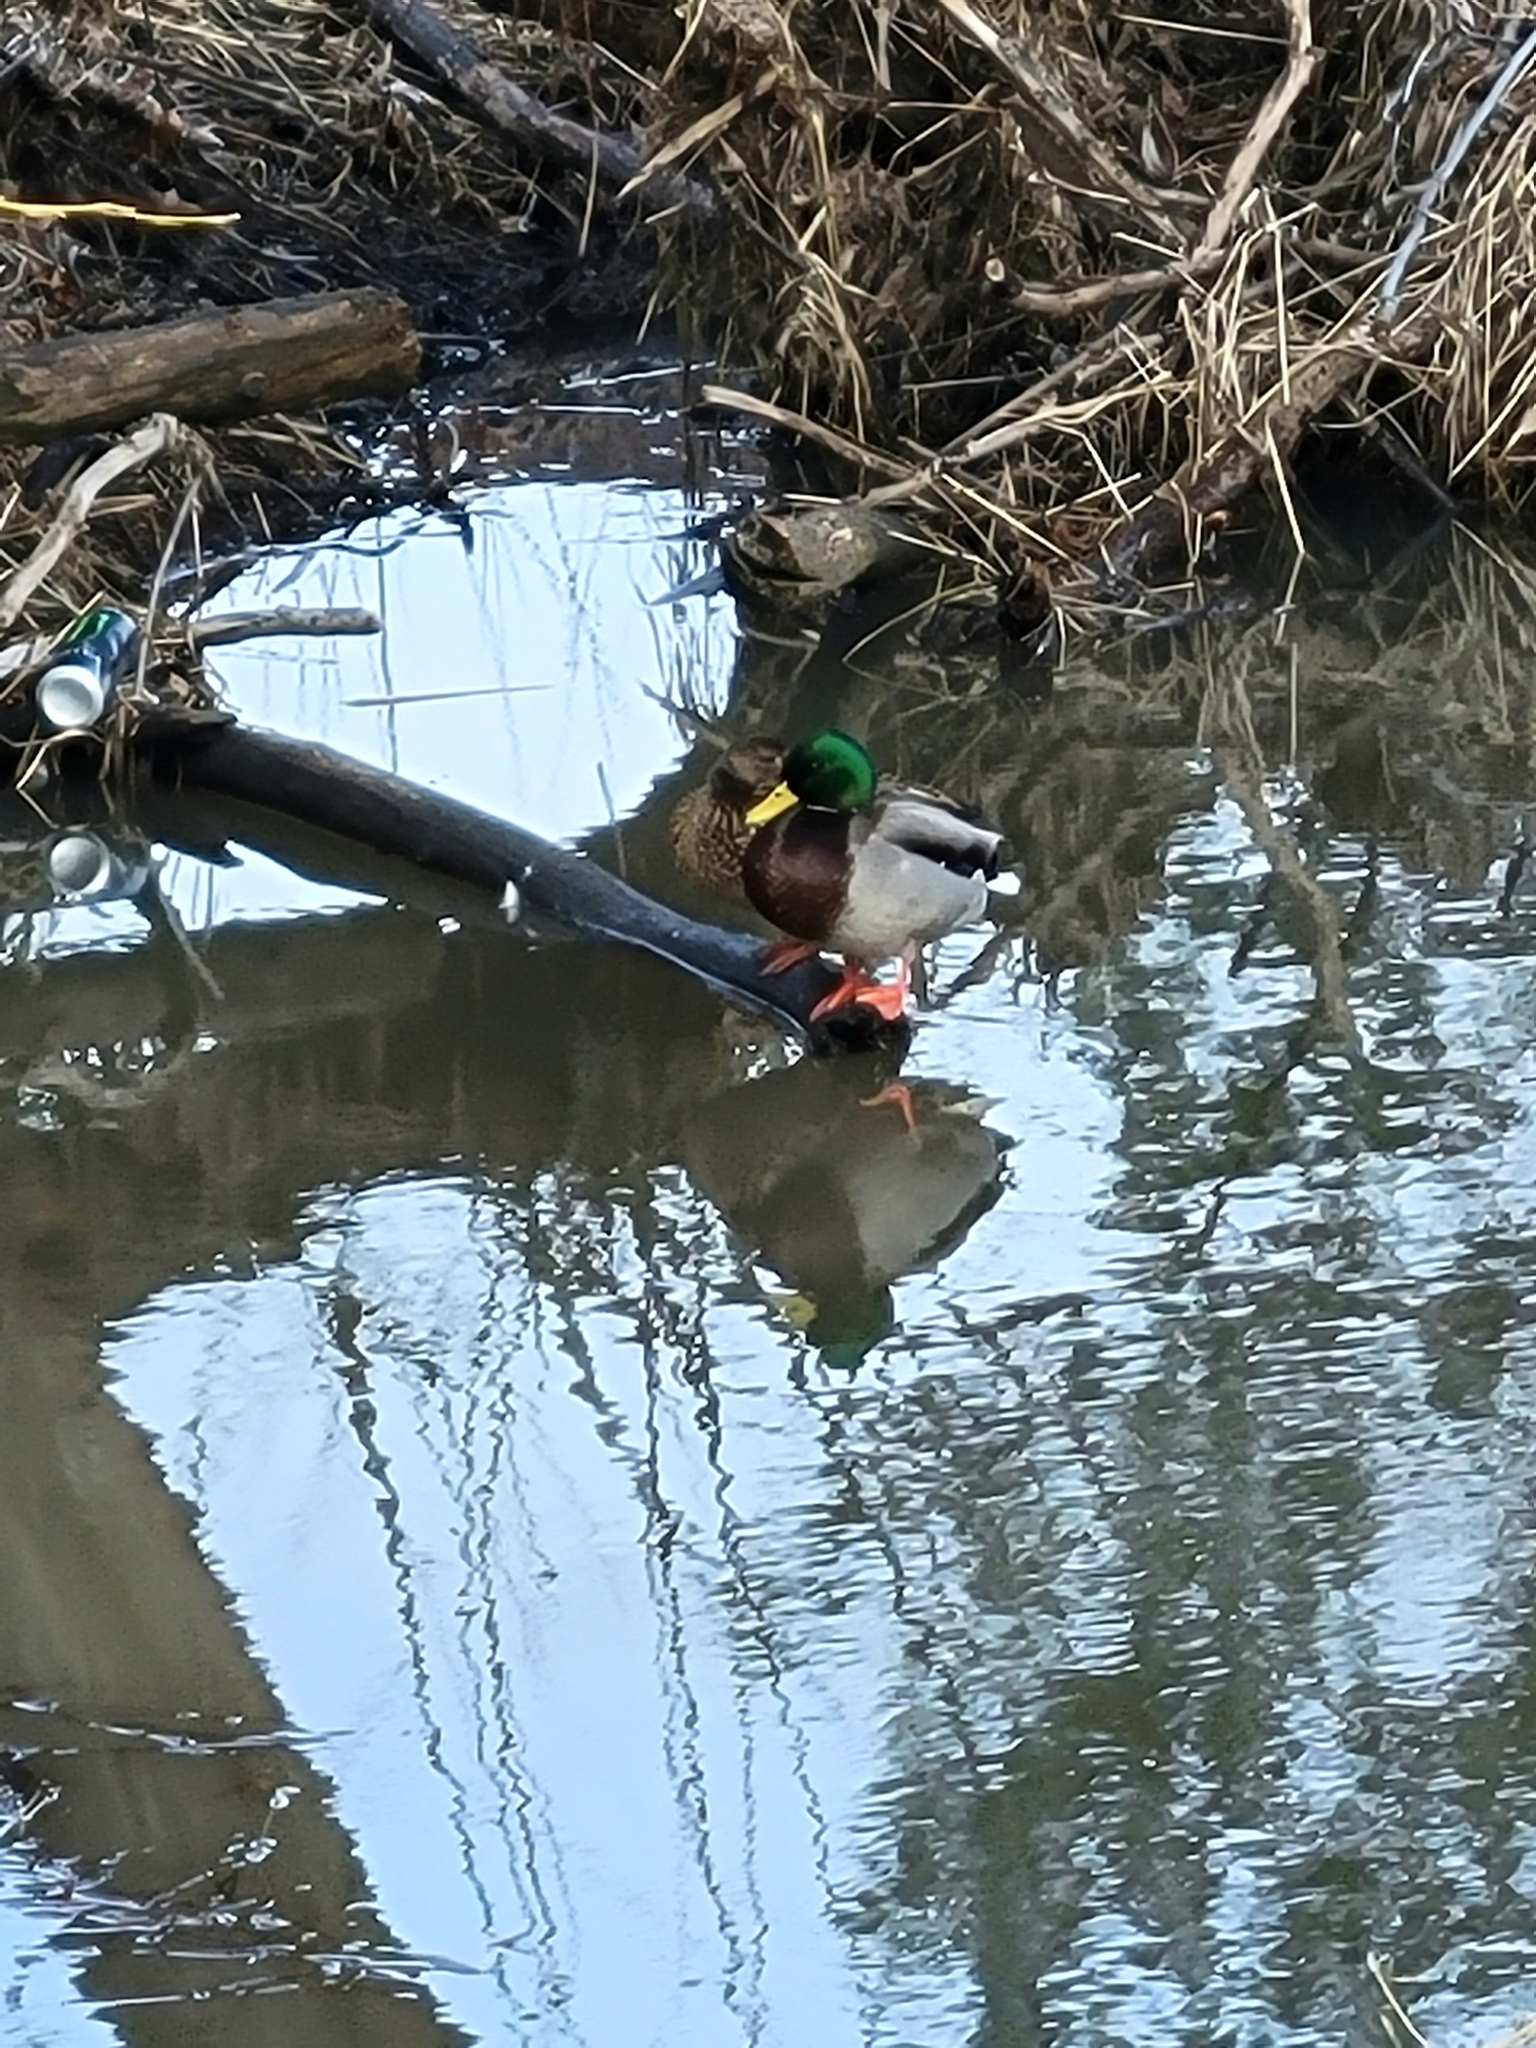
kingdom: Animalia
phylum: Chordata
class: Aves
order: Anseriformes
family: Anatidae
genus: Anas
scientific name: Anas platyrhynchos
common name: Mallard
